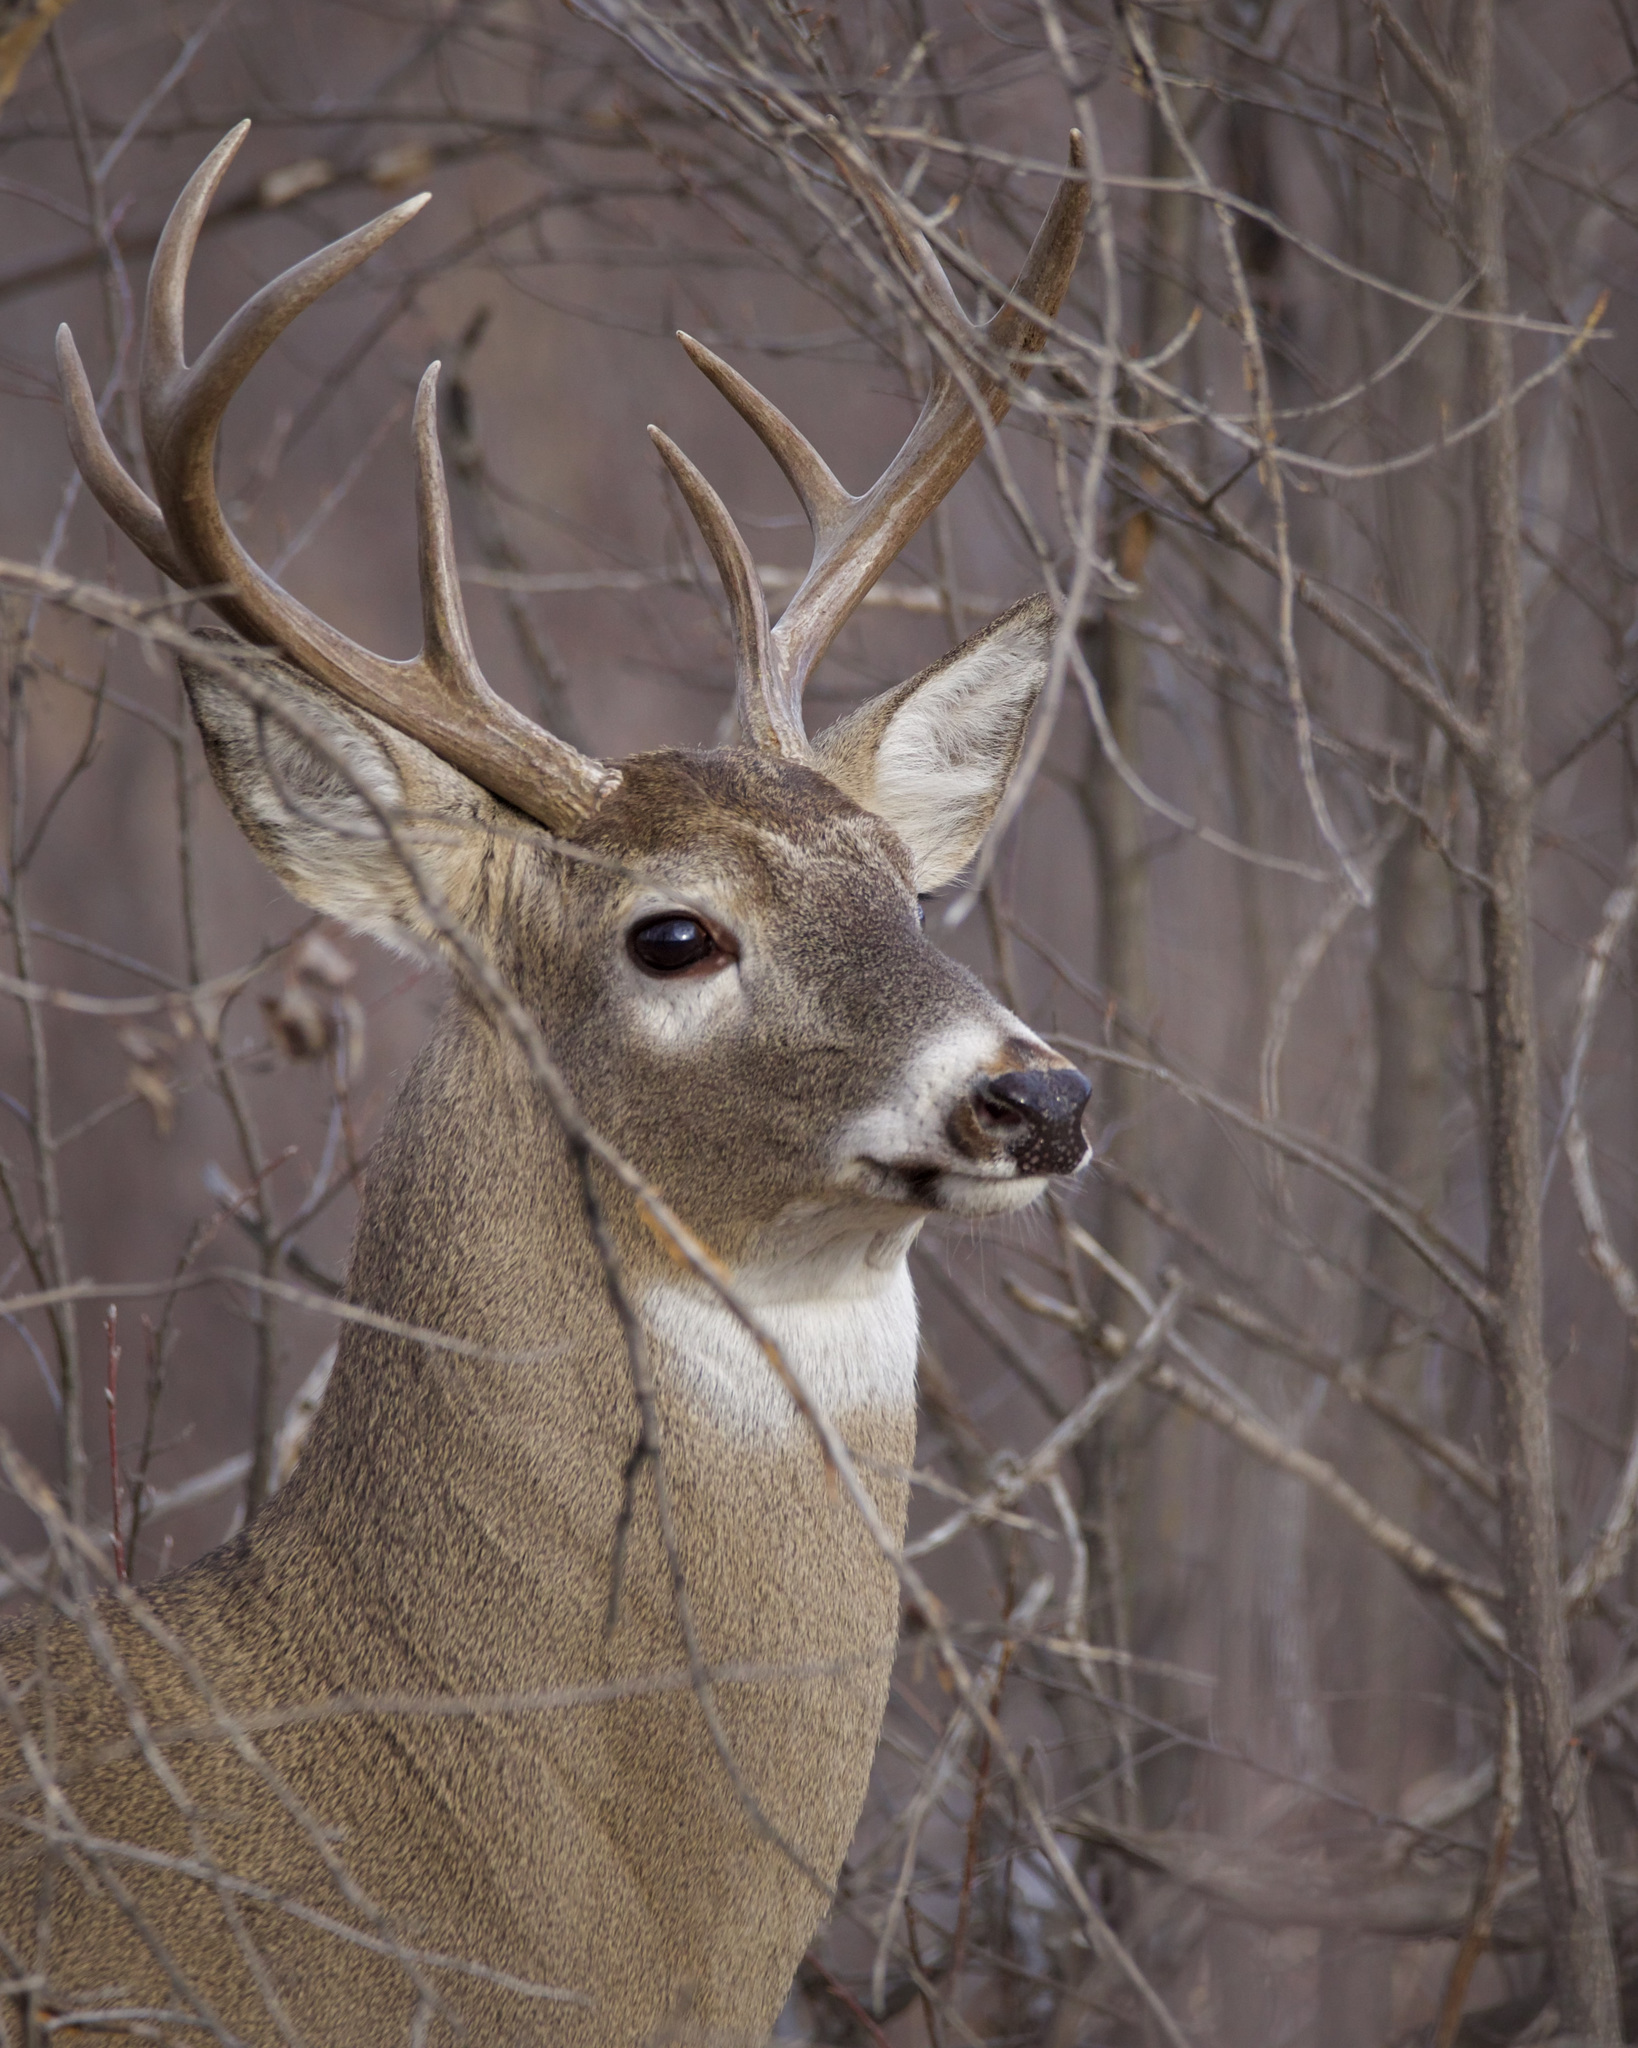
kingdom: Animalia
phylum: Chordata
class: Mammalia
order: Artiodactyla
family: Cervidae
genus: Odocoileus
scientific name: Odocoileus virginianus
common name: White-tailed deer
